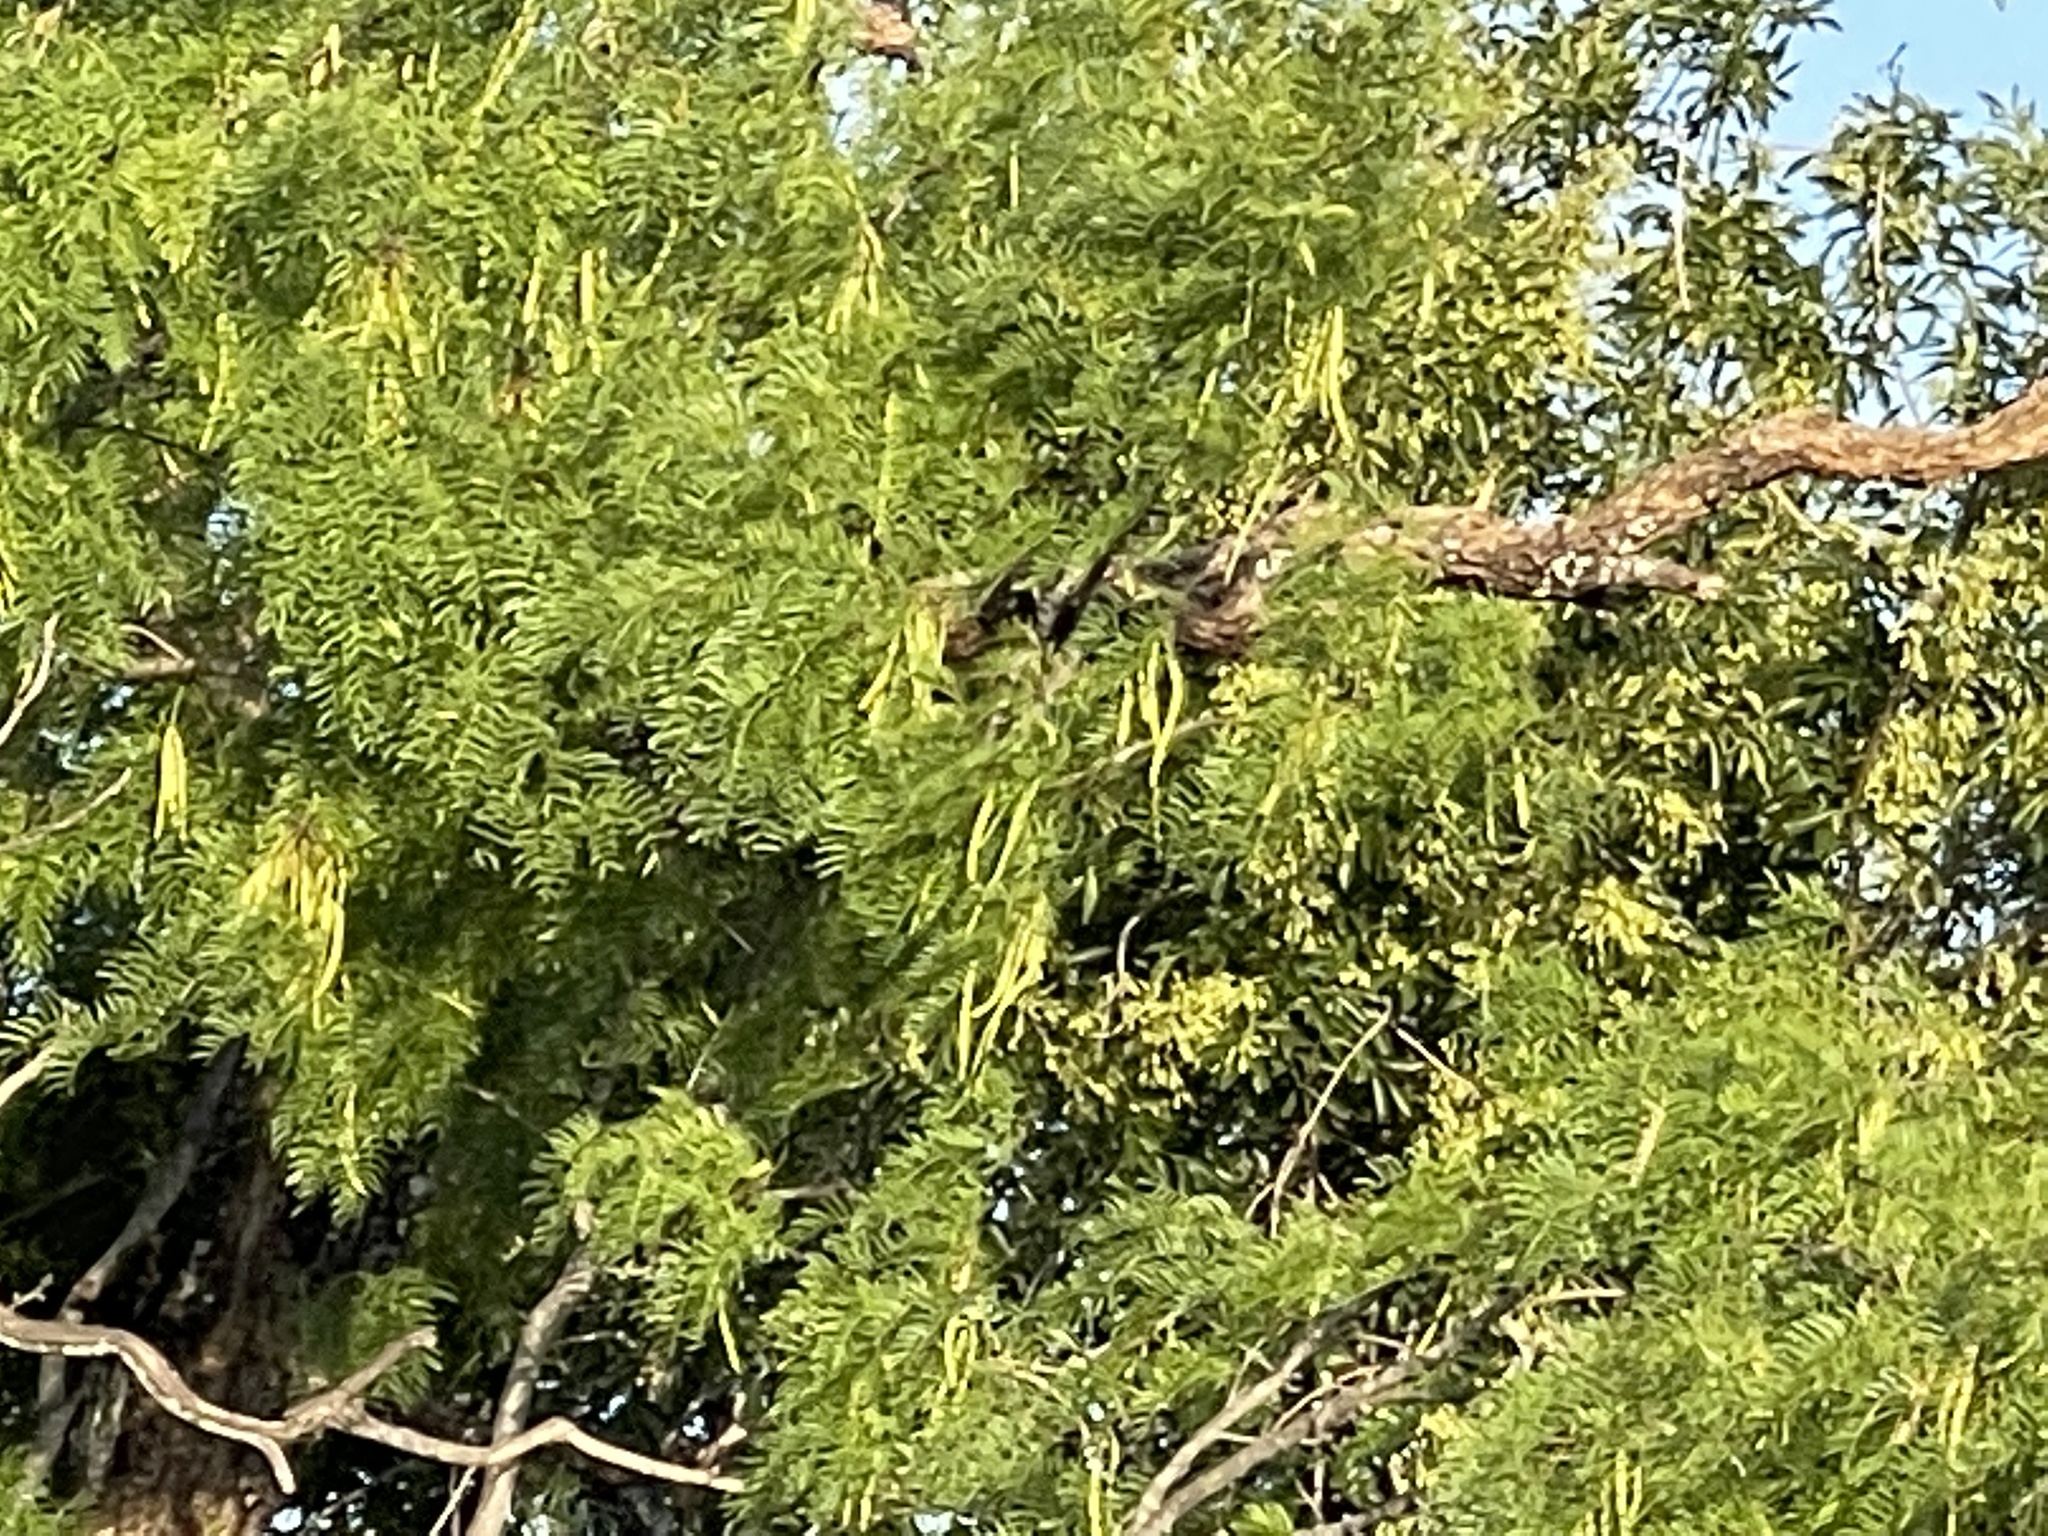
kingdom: Plantae
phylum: Tracheophyta
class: Magnoliopsida
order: Fabales
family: Fabaceae
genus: Prosopis
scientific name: Prosopis glandulosa
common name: Honey mesquite
